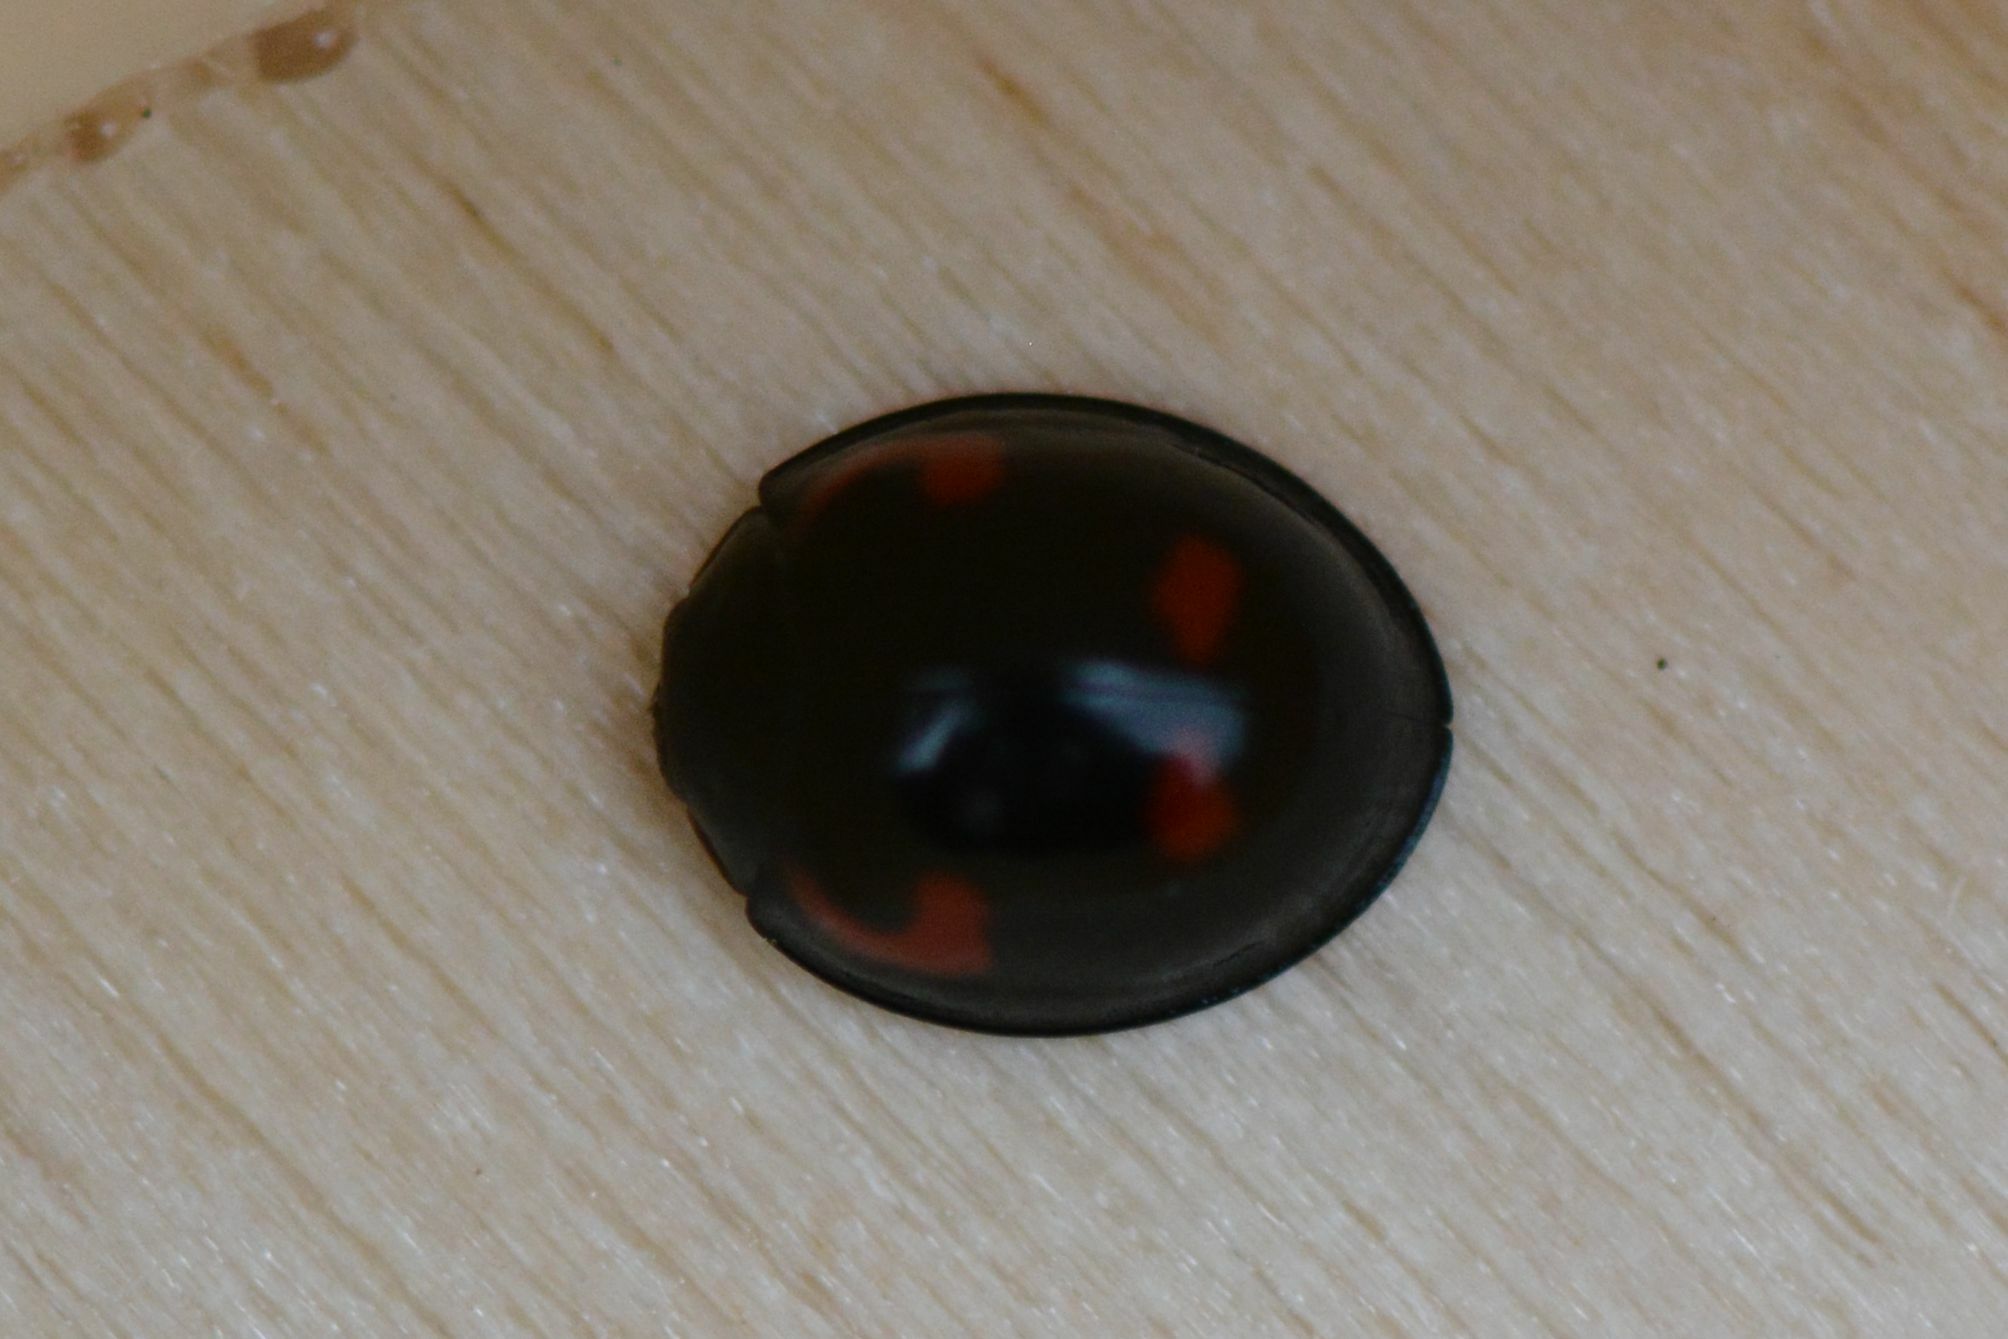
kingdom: Animalia
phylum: Arthropoda
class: Insecta
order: Coleoptera
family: Coccinellidae
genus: Brumus
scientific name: Brumus quadripustulatus
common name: Ladybird beetle
